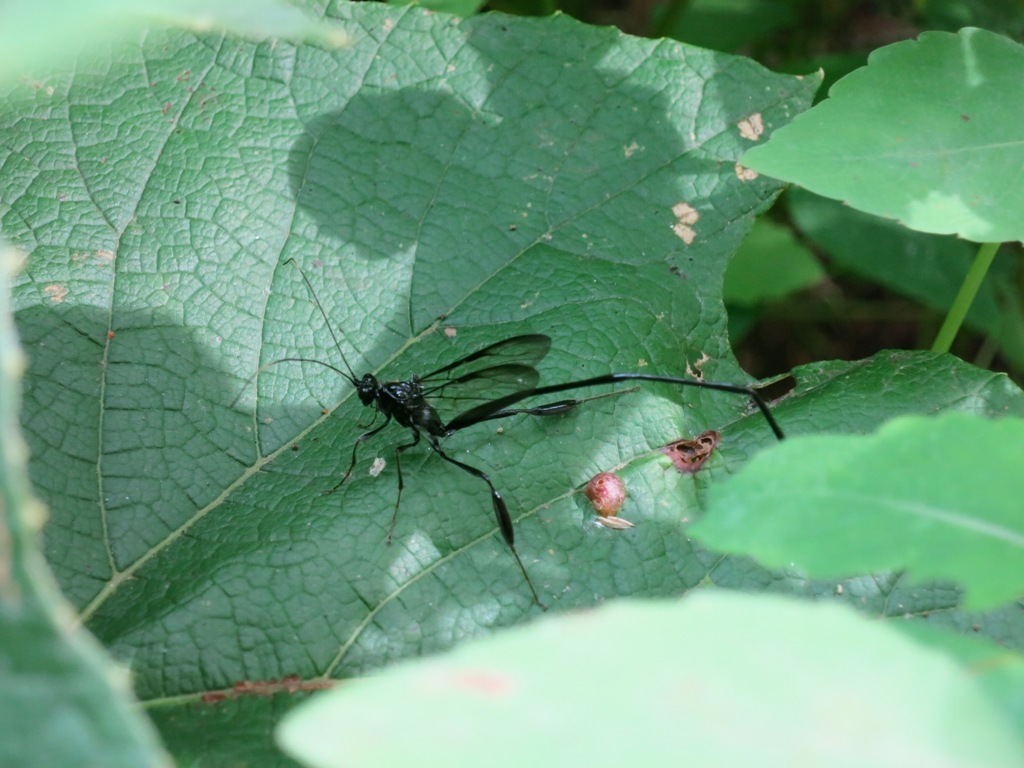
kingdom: Animalia
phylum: Arthropoda
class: Insecta
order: Hymenoptera
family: Pelecinidae
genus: Pelecinus
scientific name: Pelecinus polyturator
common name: American pelecinid wasp
